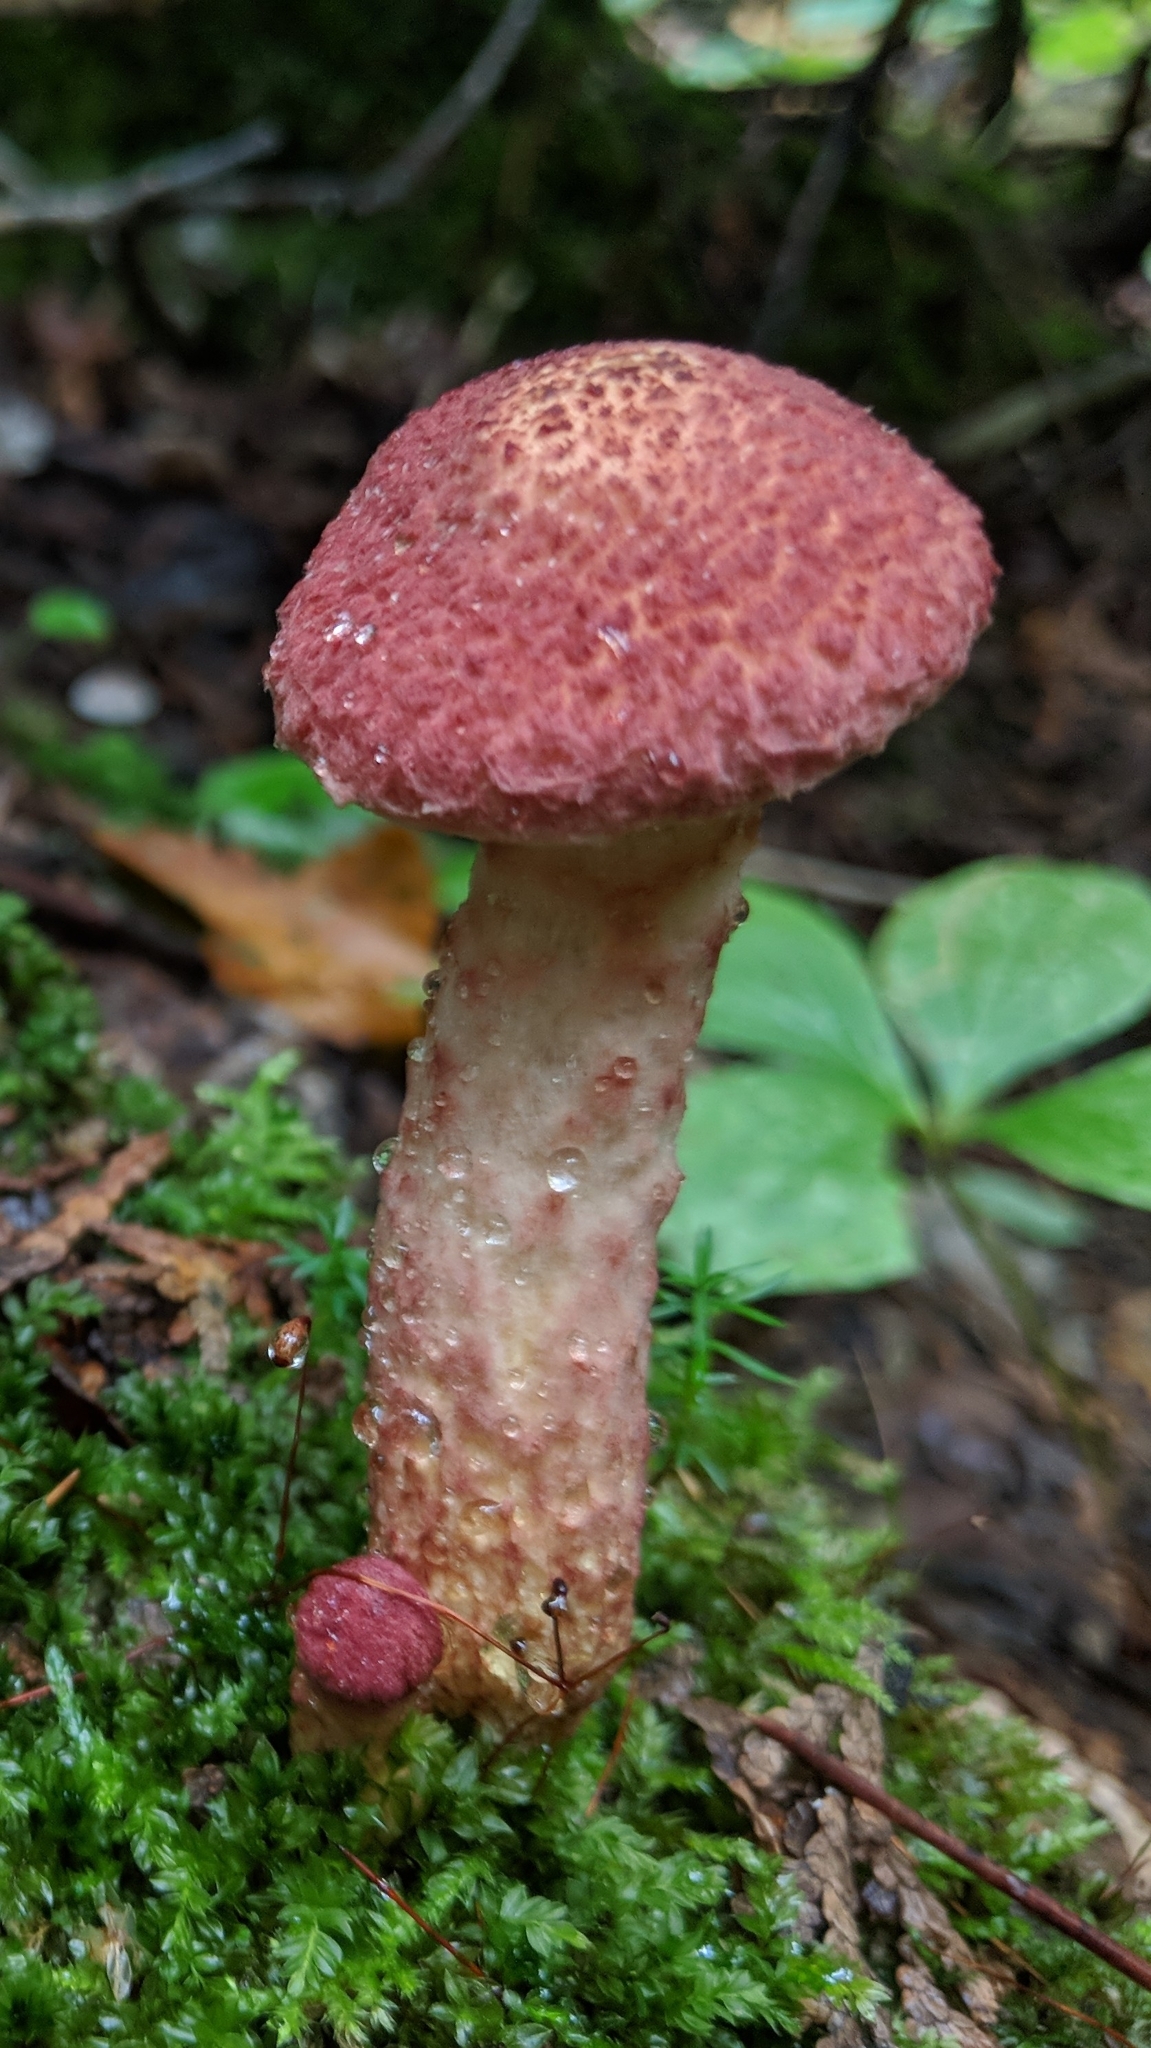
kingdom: Fungi
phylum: Basidiomycota
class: Agaricomycetes
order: Boletales
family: Suillaceae
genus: Suillus
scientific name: Suillus spraguei
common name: Painted suillus
